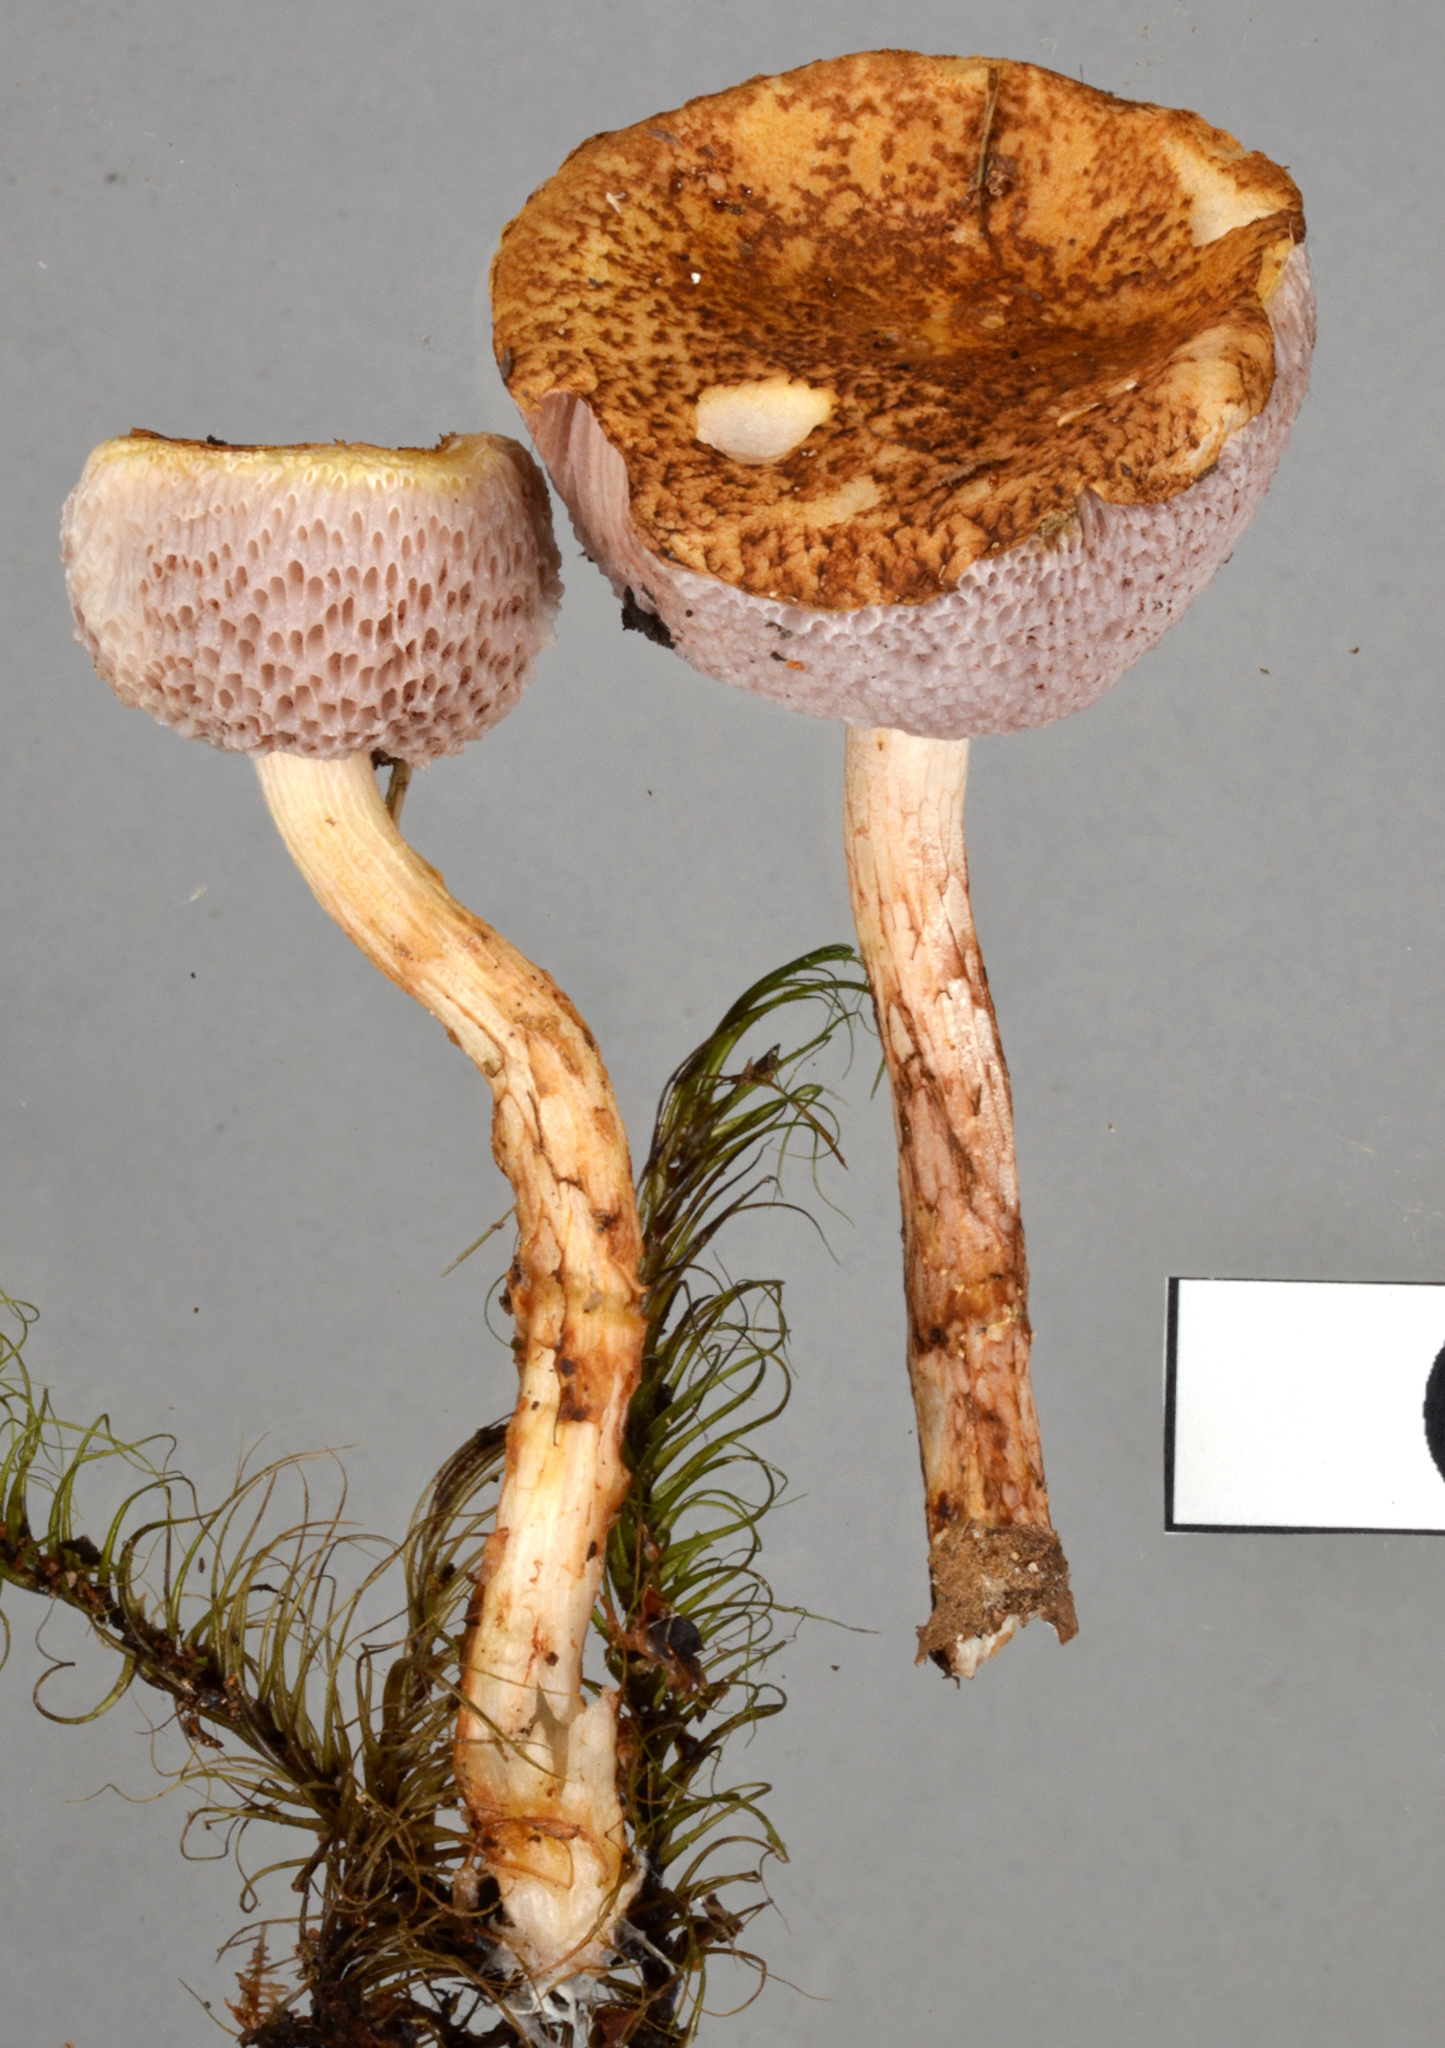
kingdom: Fungi
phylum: Basidiomycota
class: Agaricomycetes
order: Boletales
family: Boletaceae
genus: Austroboletus
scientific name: Austroboletus lacunosus
